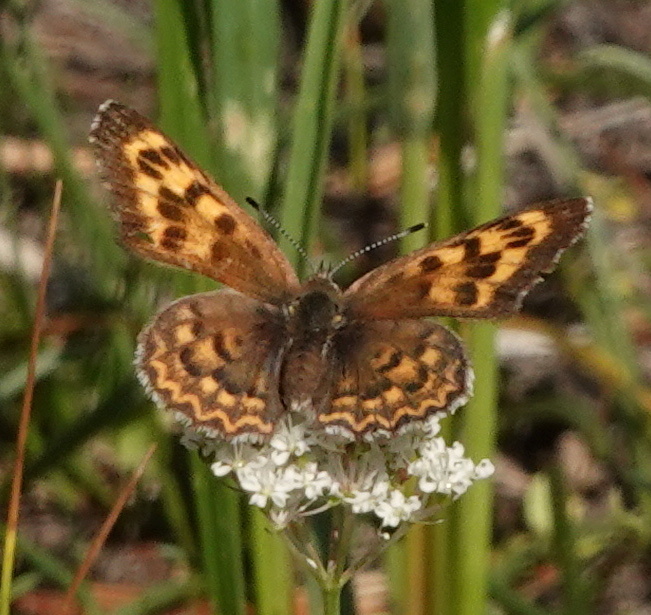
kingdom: Animalia
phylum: Arthropoda
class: Insecta
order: Lepidoptera
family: Lycaenidae
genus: Tharsalea
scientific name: Tharsalea mariposa
